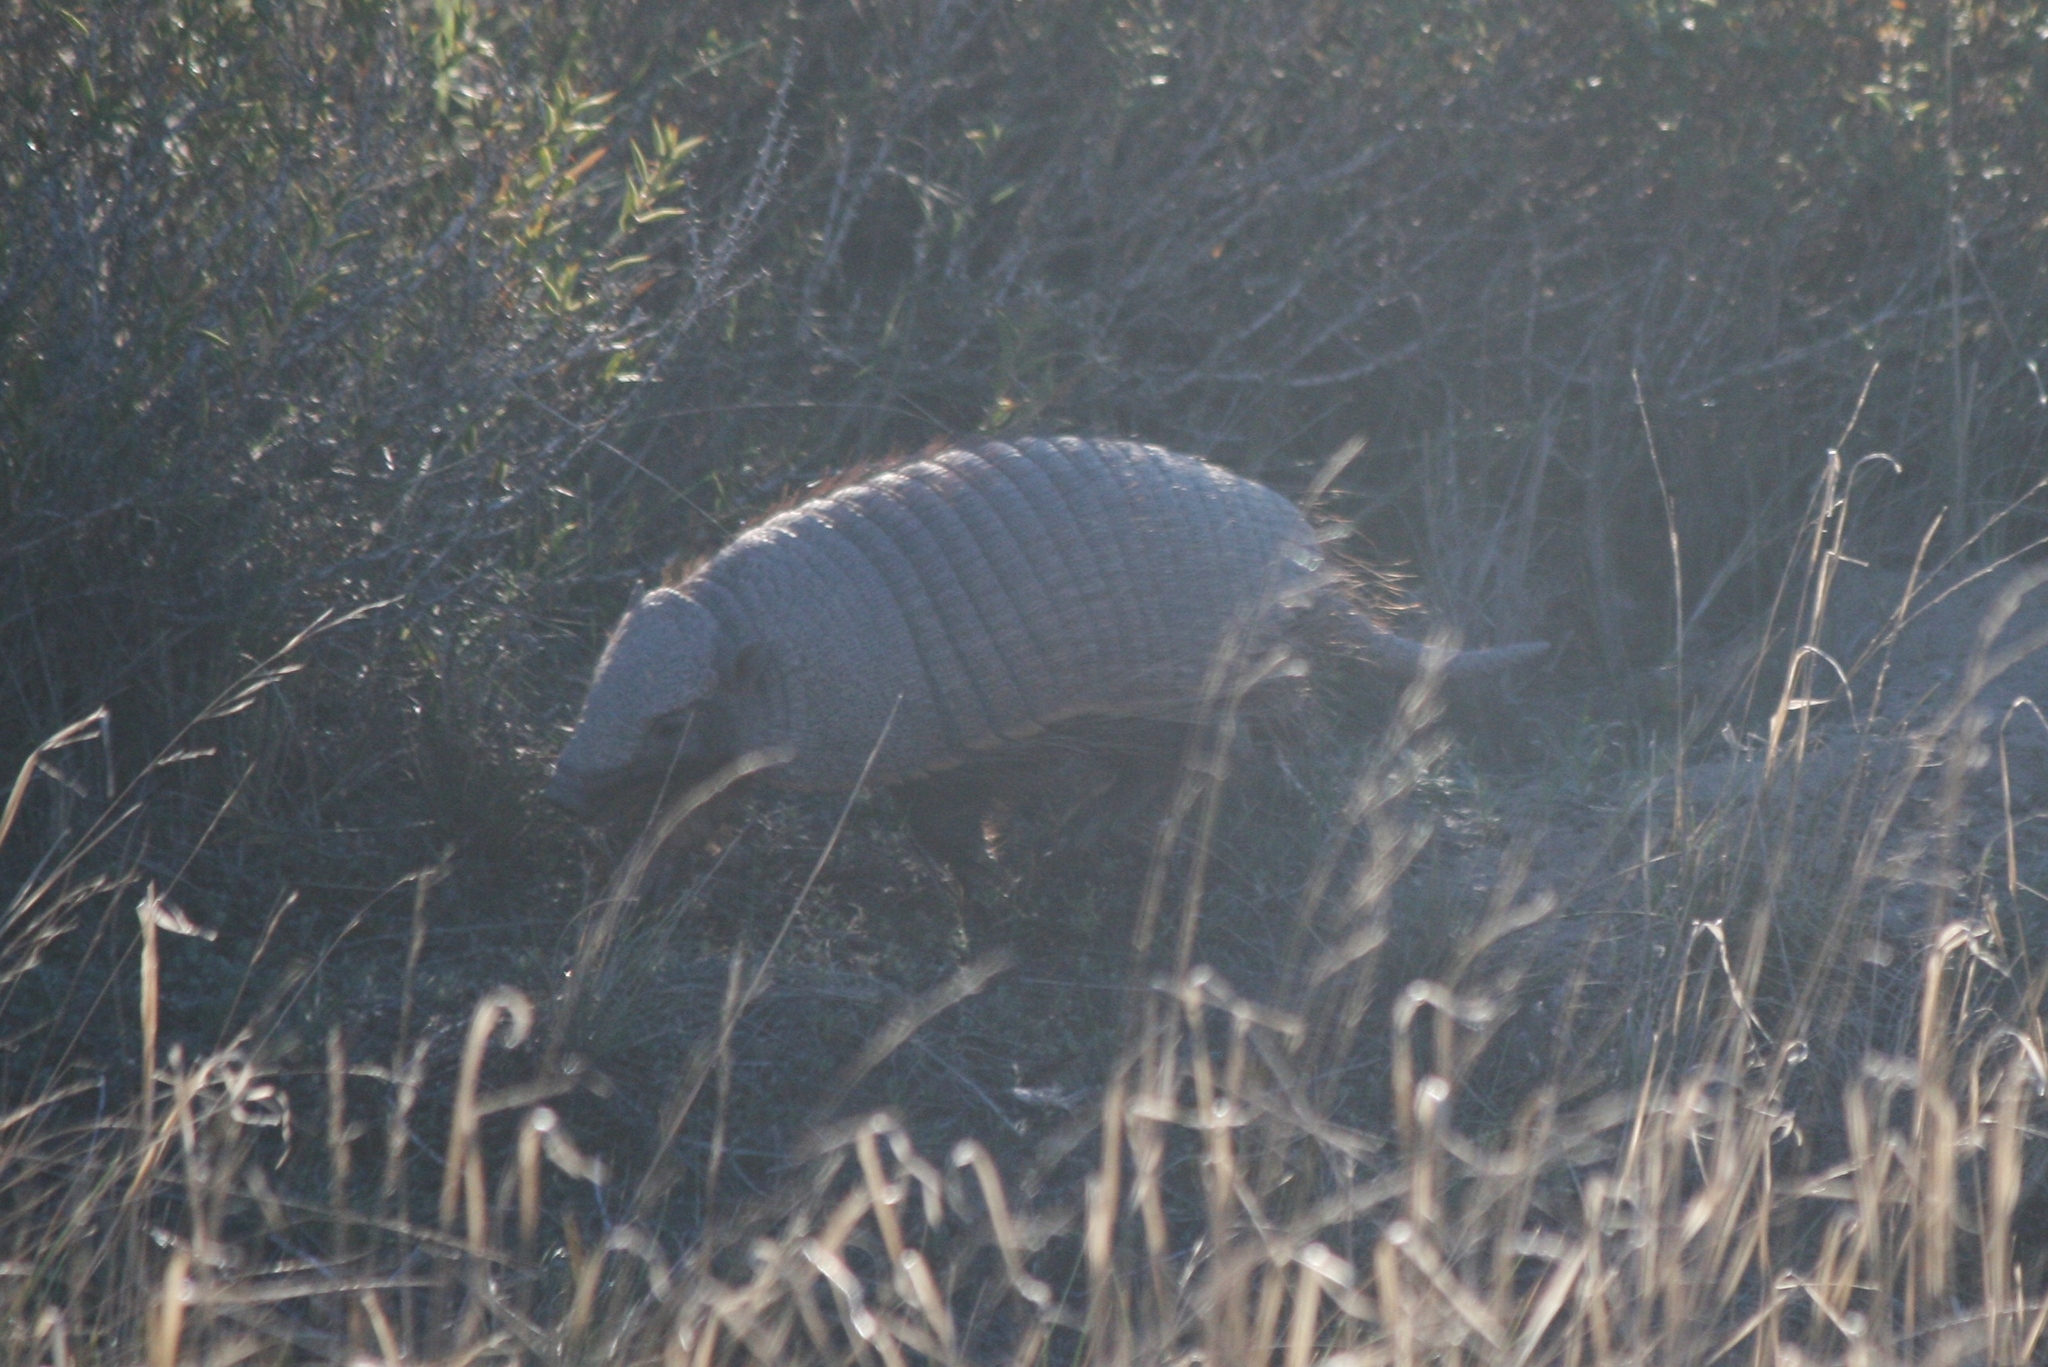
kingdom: Animalia
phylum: Chordata
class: Mammalia
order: Cingulata
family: Dasypodidae
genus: Chaetophractus
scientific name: Chaetophractus villosus
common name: Big hairy armadillo
